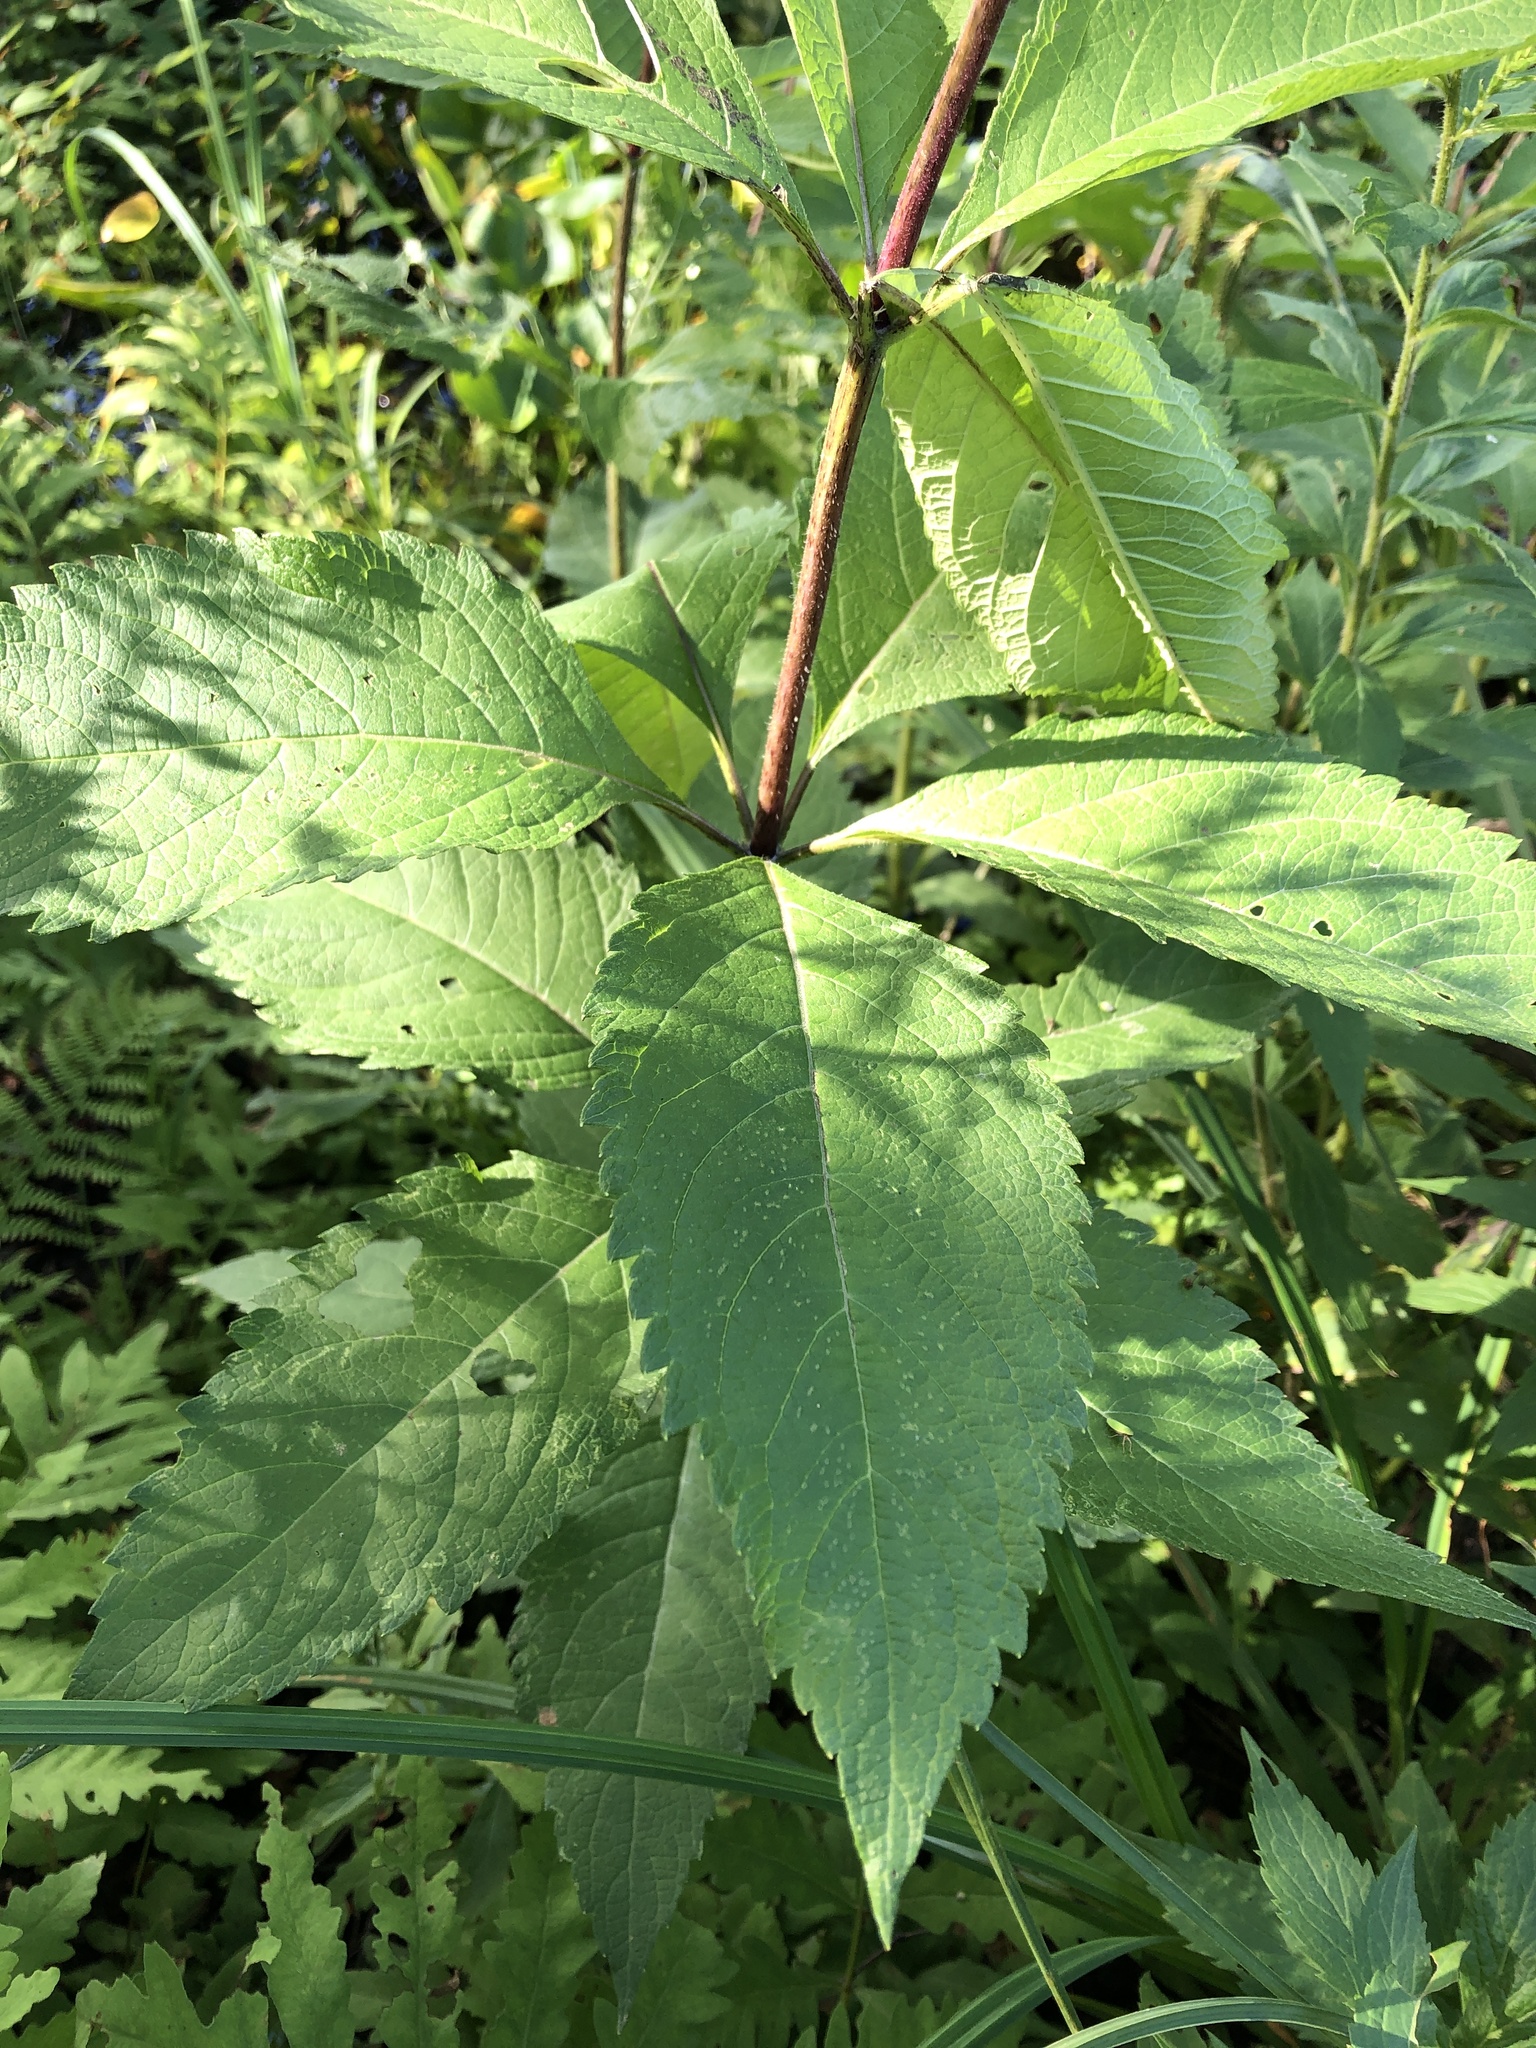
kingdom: Plantae
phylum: Tracheophyta
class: Magnoliopsida
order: Asterales
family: Asteraceae
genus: Eutrochium
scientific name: Eutrochium maculatum
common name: Spotted joe pye weed
